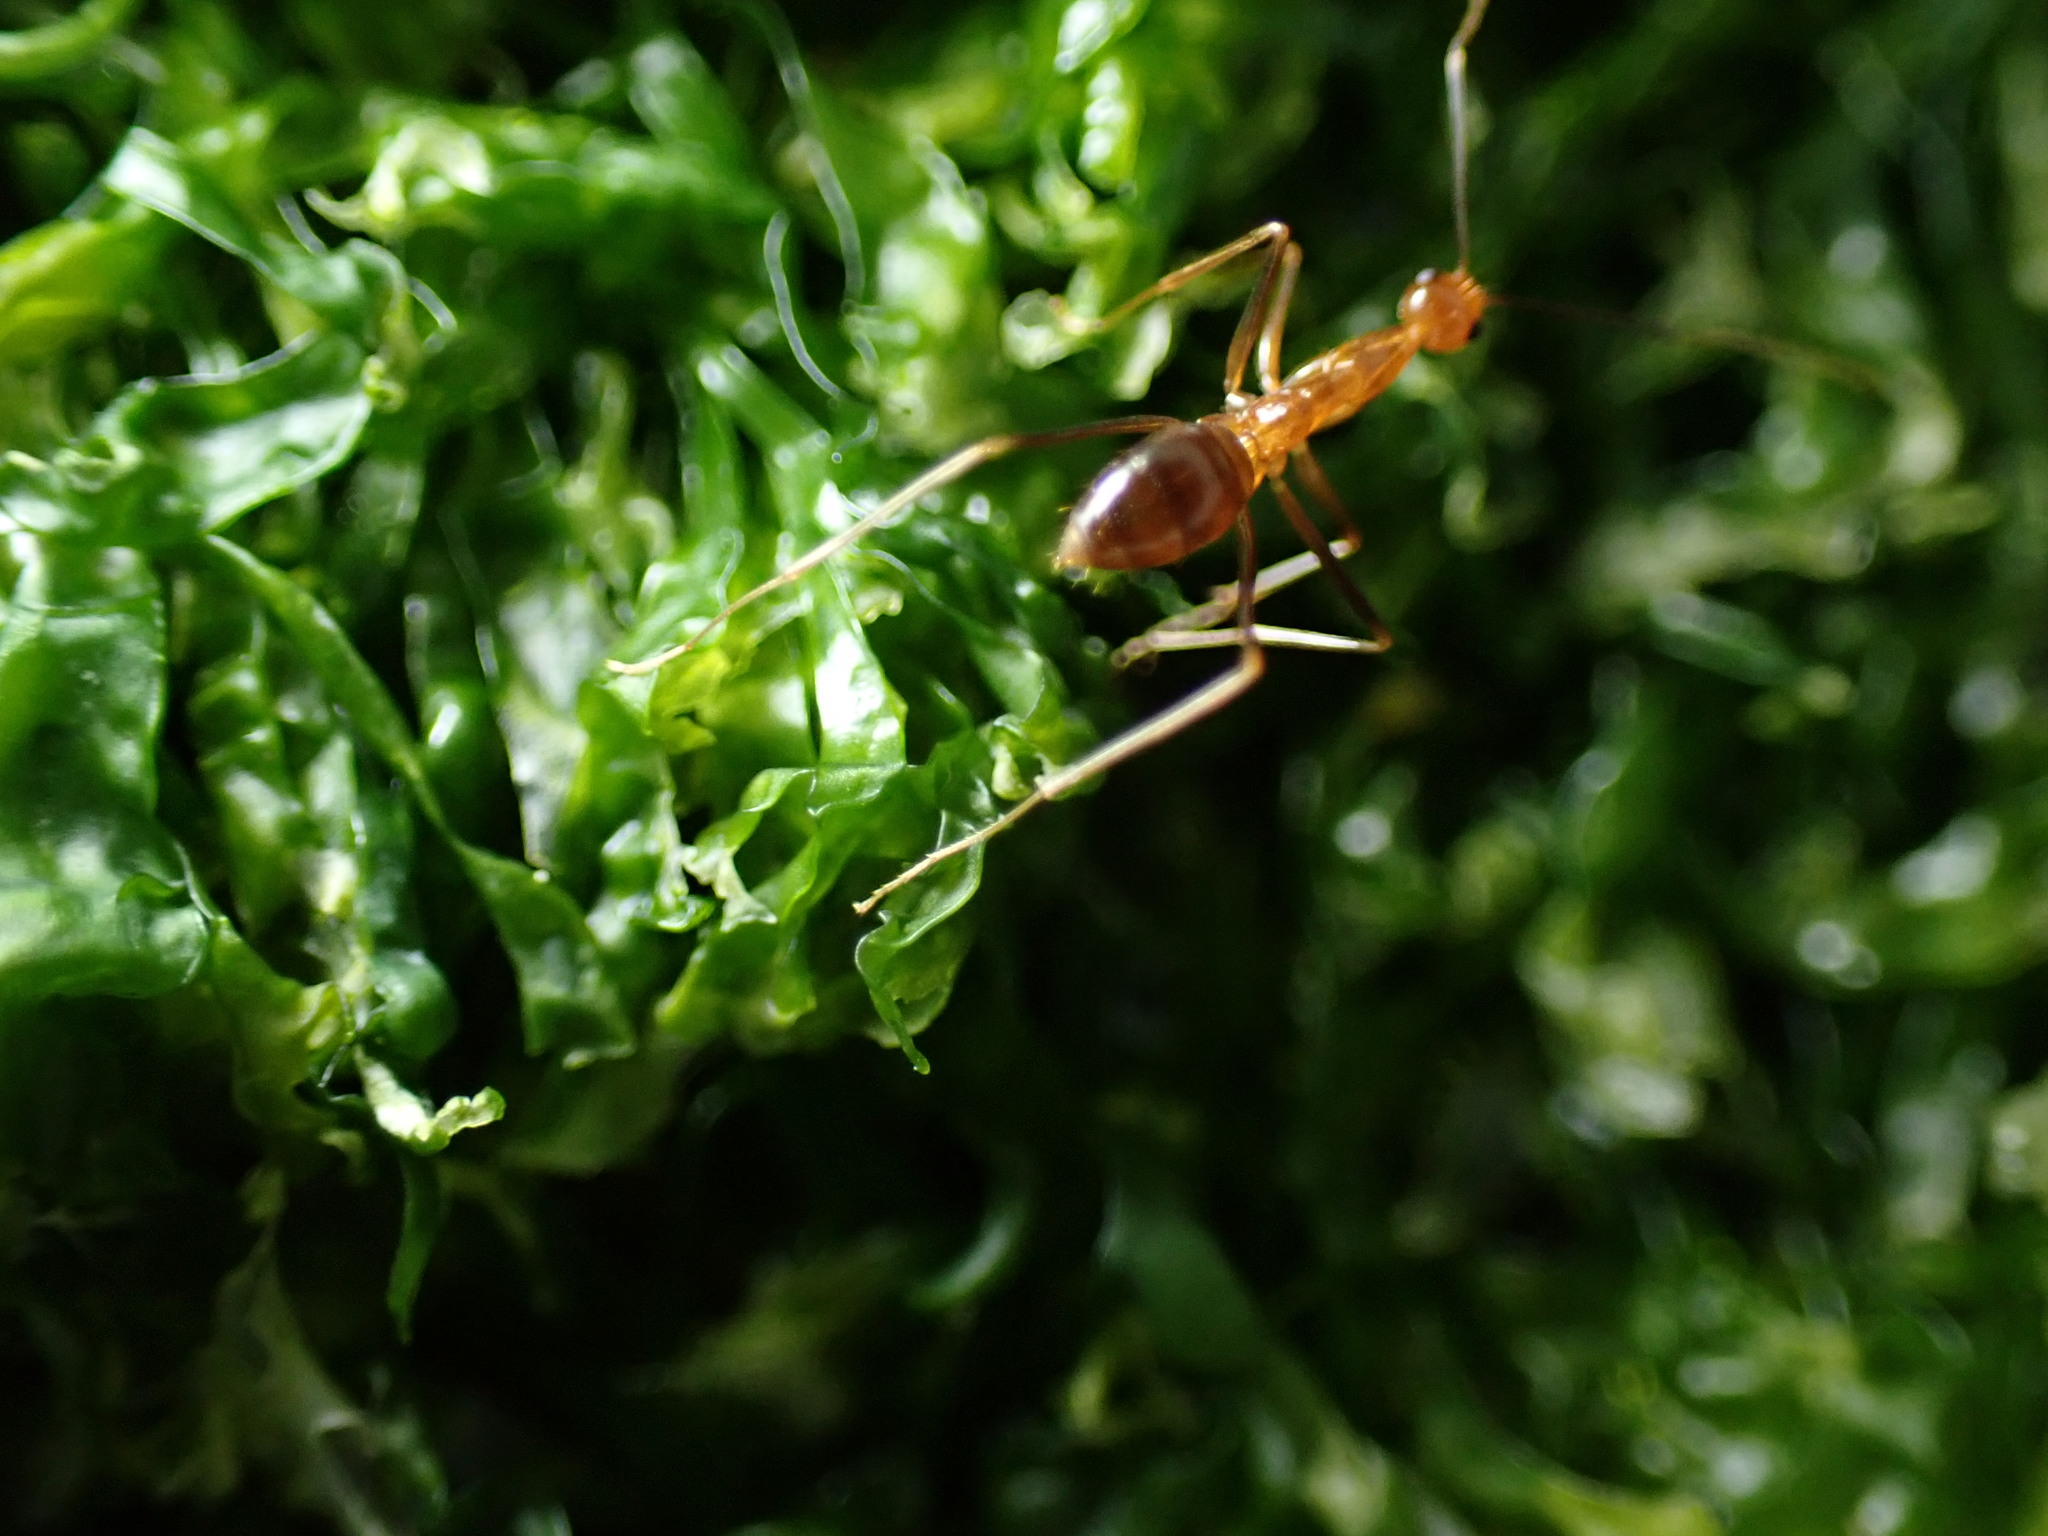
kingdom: Animalia
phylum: Arthropoda
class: Insecta
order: Hymenoptera
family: Formicidae
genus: Anoplolepis
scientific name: Anoplolepis gracilipes
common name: Ant
